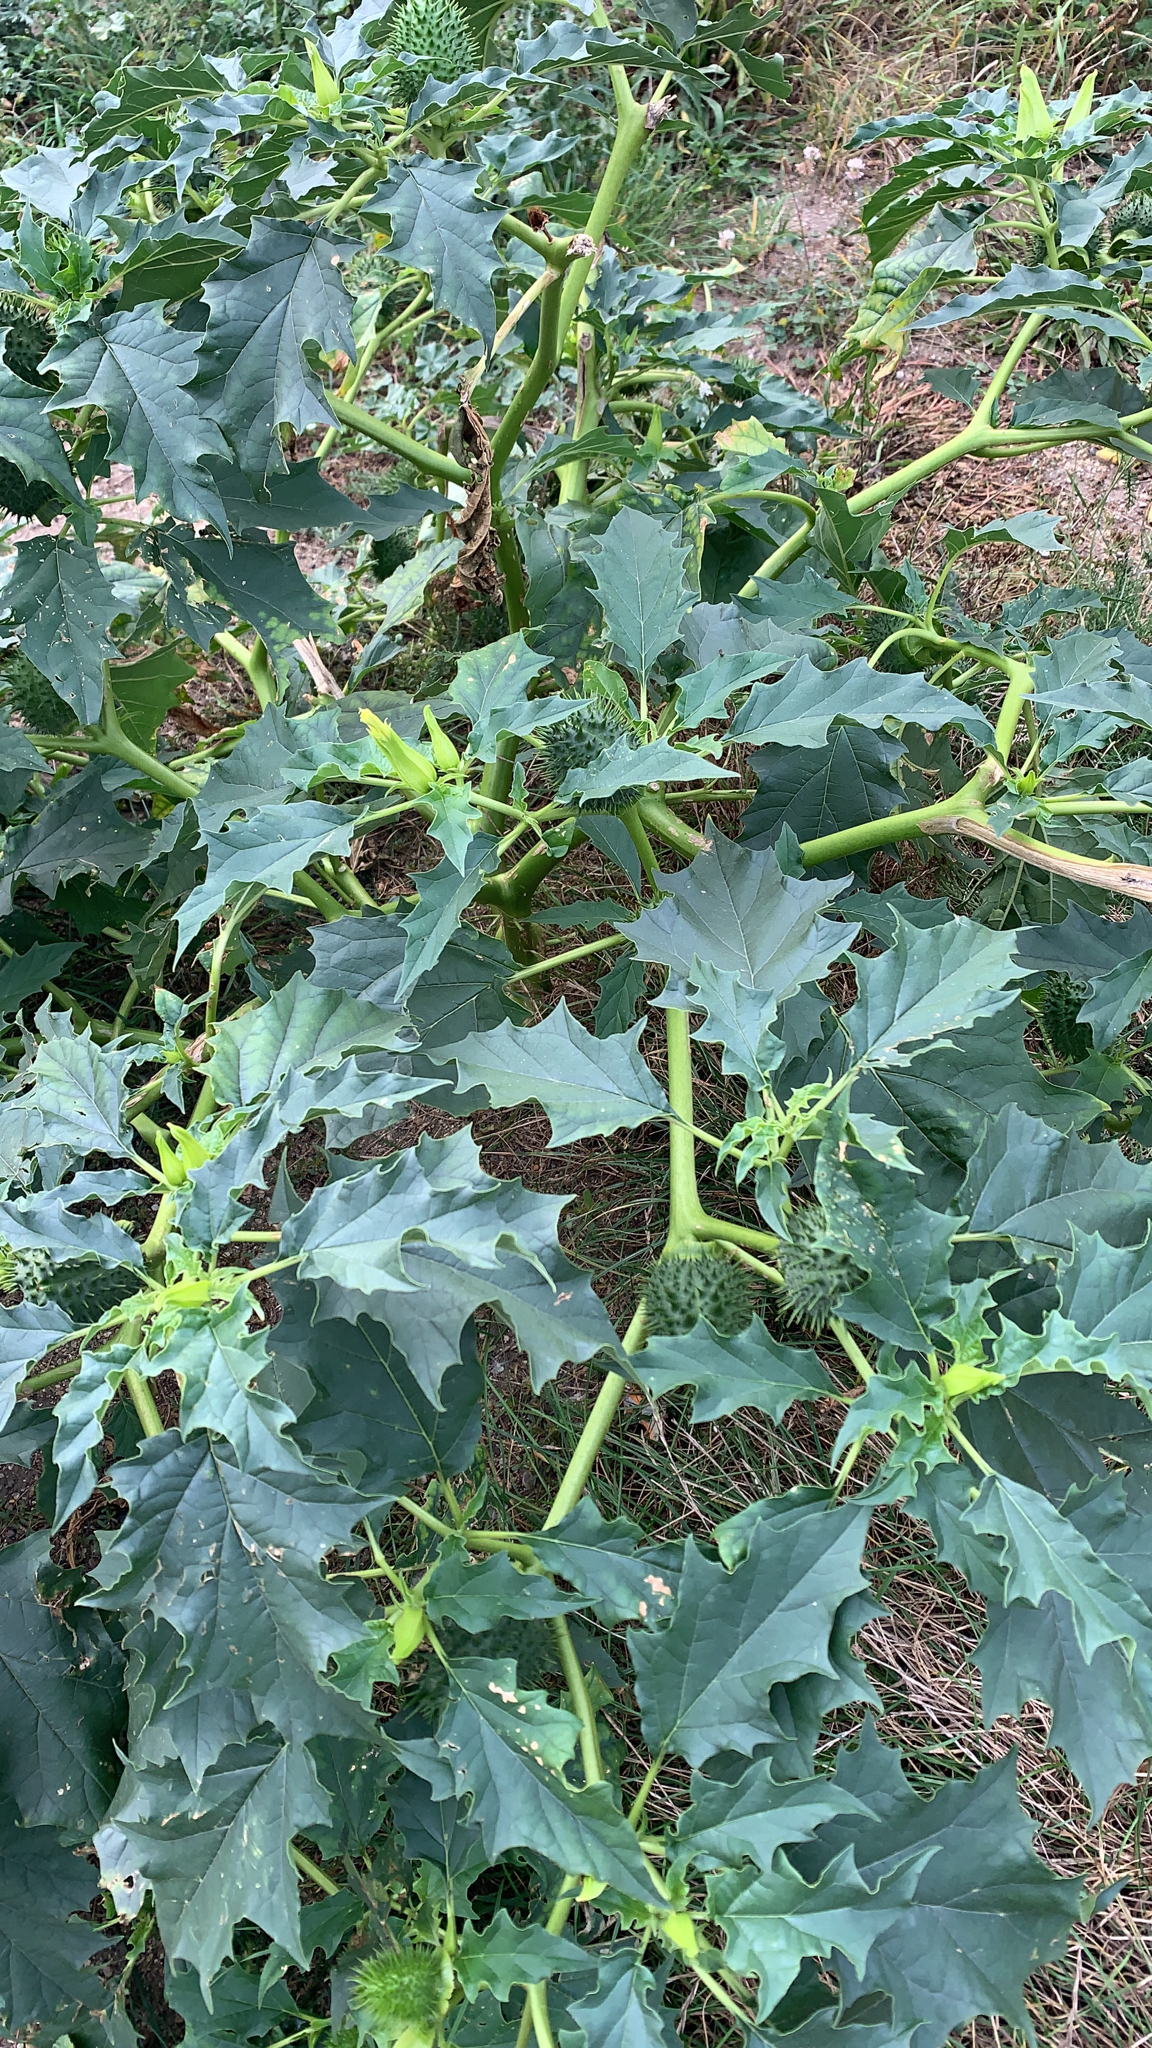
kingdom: Plantae
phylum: Tracheophyta
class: Magnoliopsida
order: Solanales
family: Solanaceae
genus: Datura
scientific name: Datura stramonium
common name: Thorn-apple
